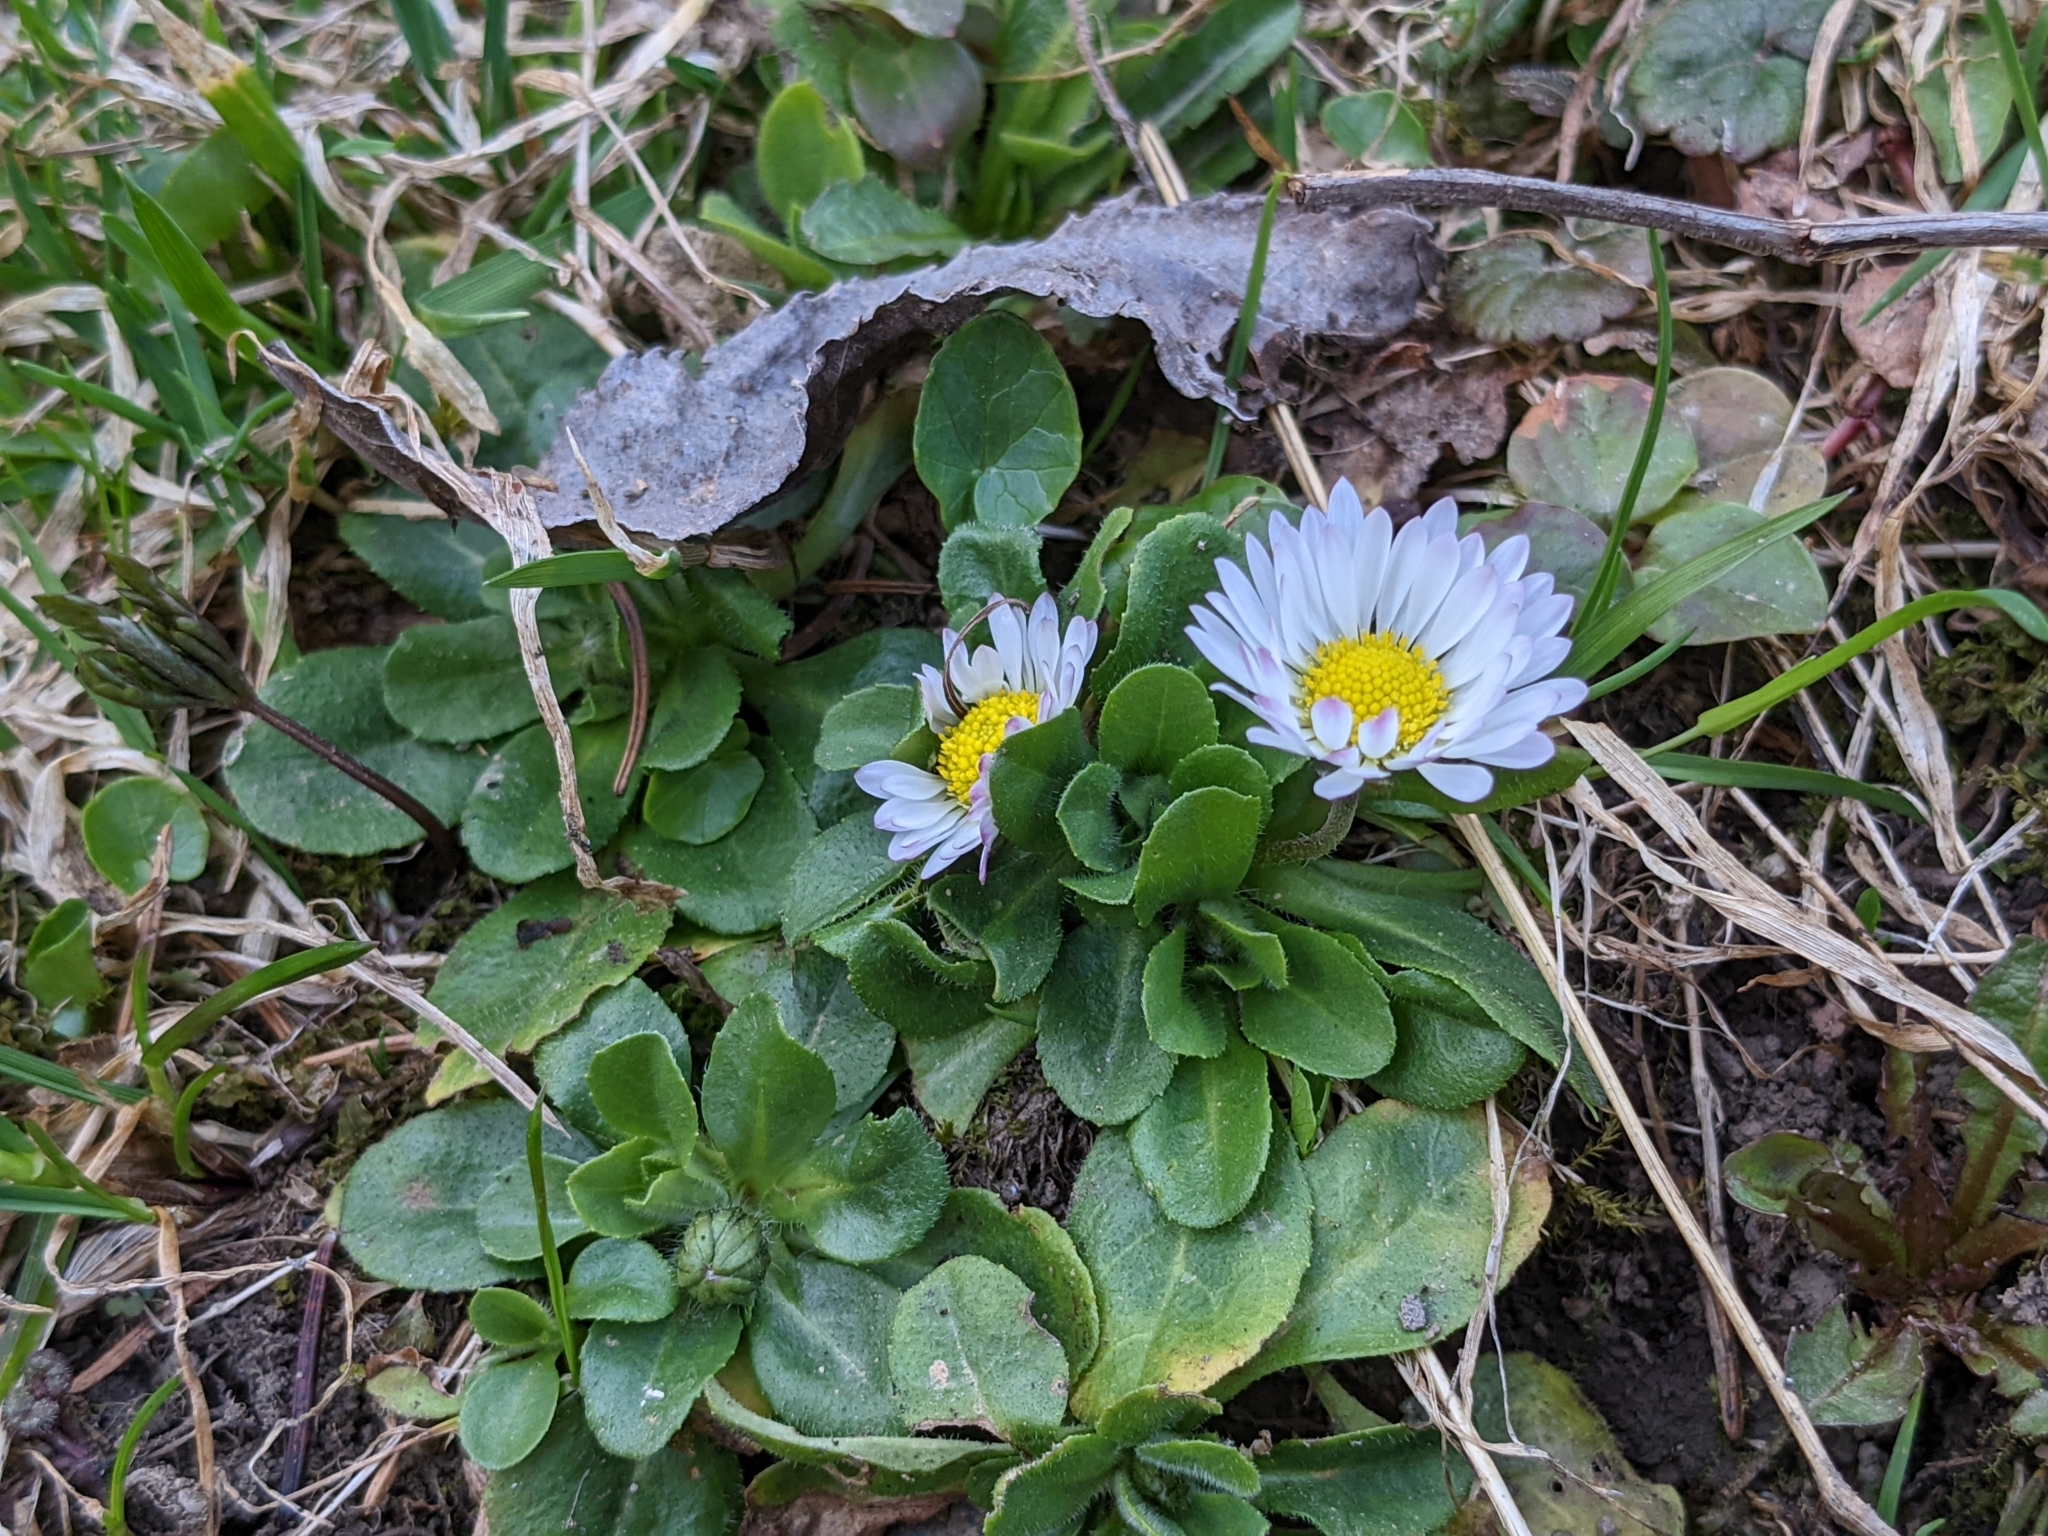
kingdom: Plantae
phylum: Tracheophyta
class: Magnoliopsida
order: Asterales
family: Asteraceae
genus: Bellis
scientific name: Bellis perennis
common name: Lawndaisy
